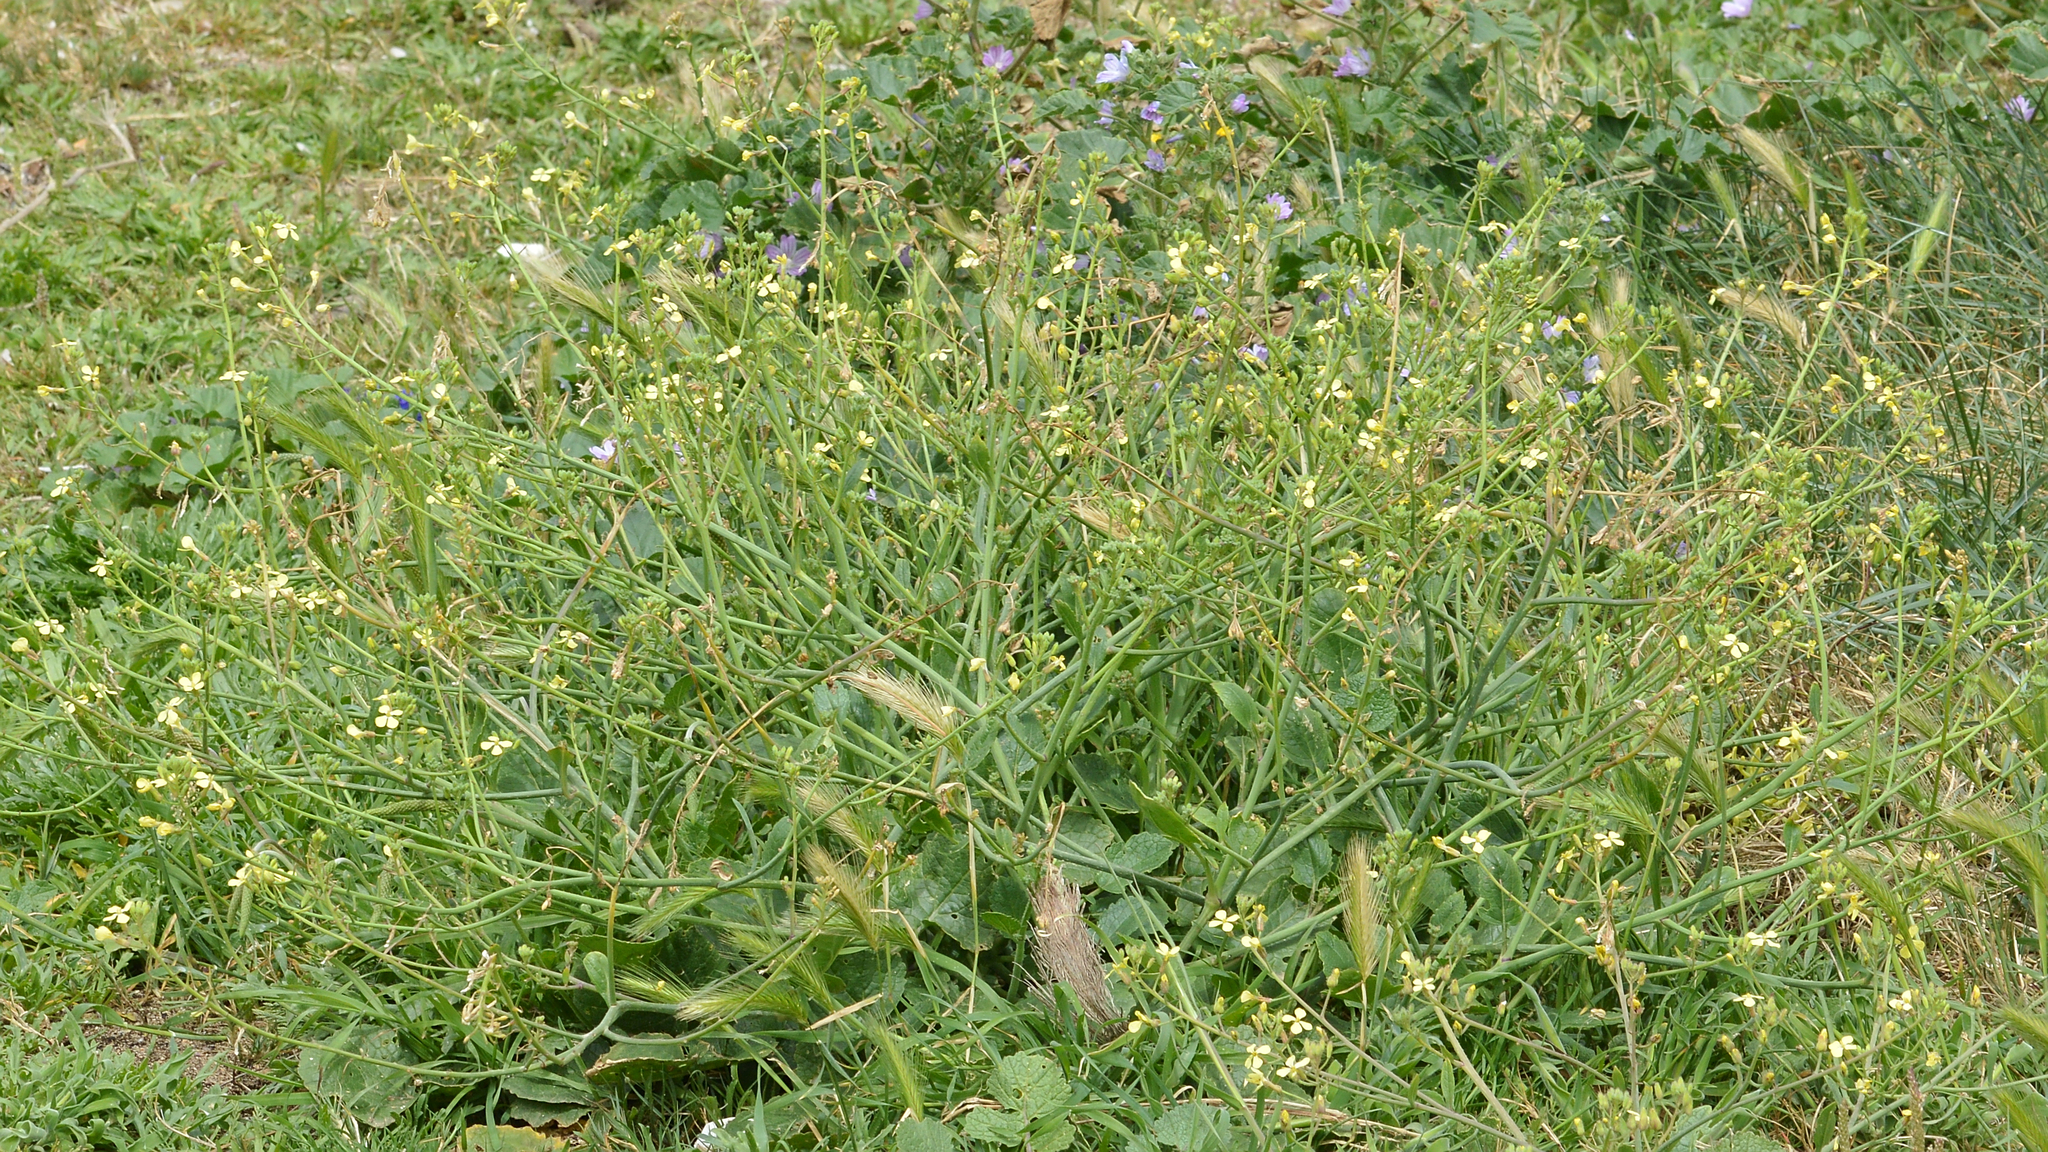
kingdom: Plantae
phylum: Tracheophyta
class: Magnoliopsida
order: Brassicales
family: Brassicaceae
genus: Raphanus
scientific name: Raphanus raphanistrum
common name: Wild radish
